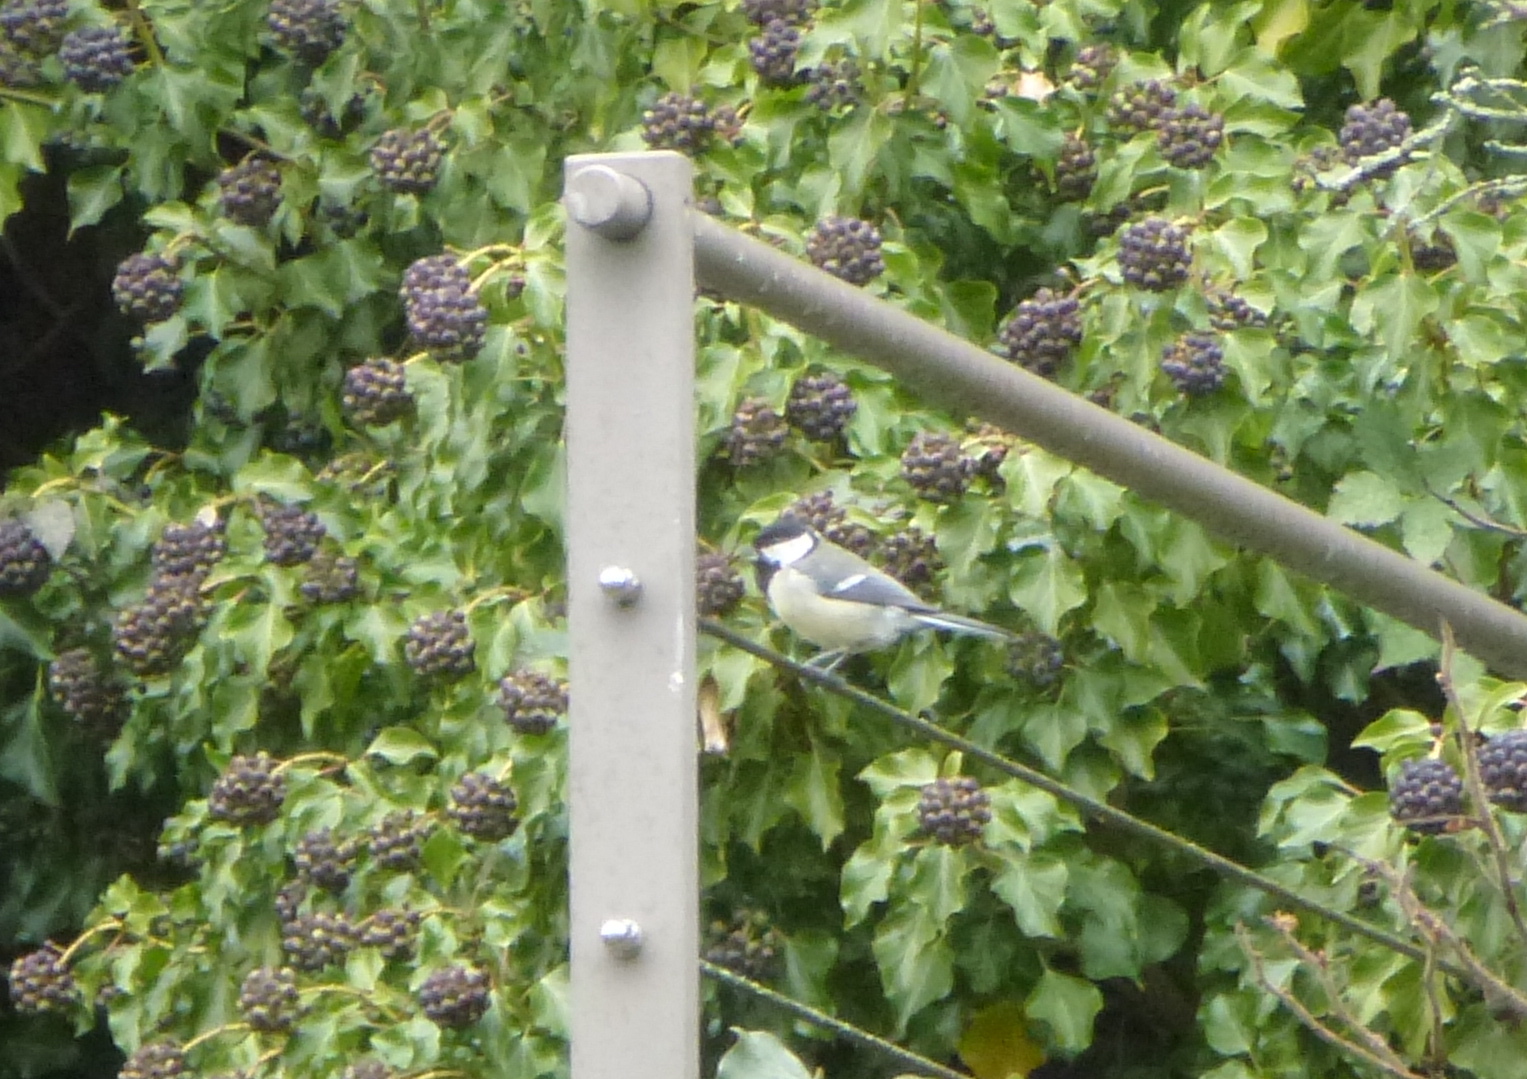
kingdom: Animalia
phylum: Chordata
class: Aves
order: Passeriformes
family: Paridae
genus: Parus
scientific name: Parus major
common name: Great tit
